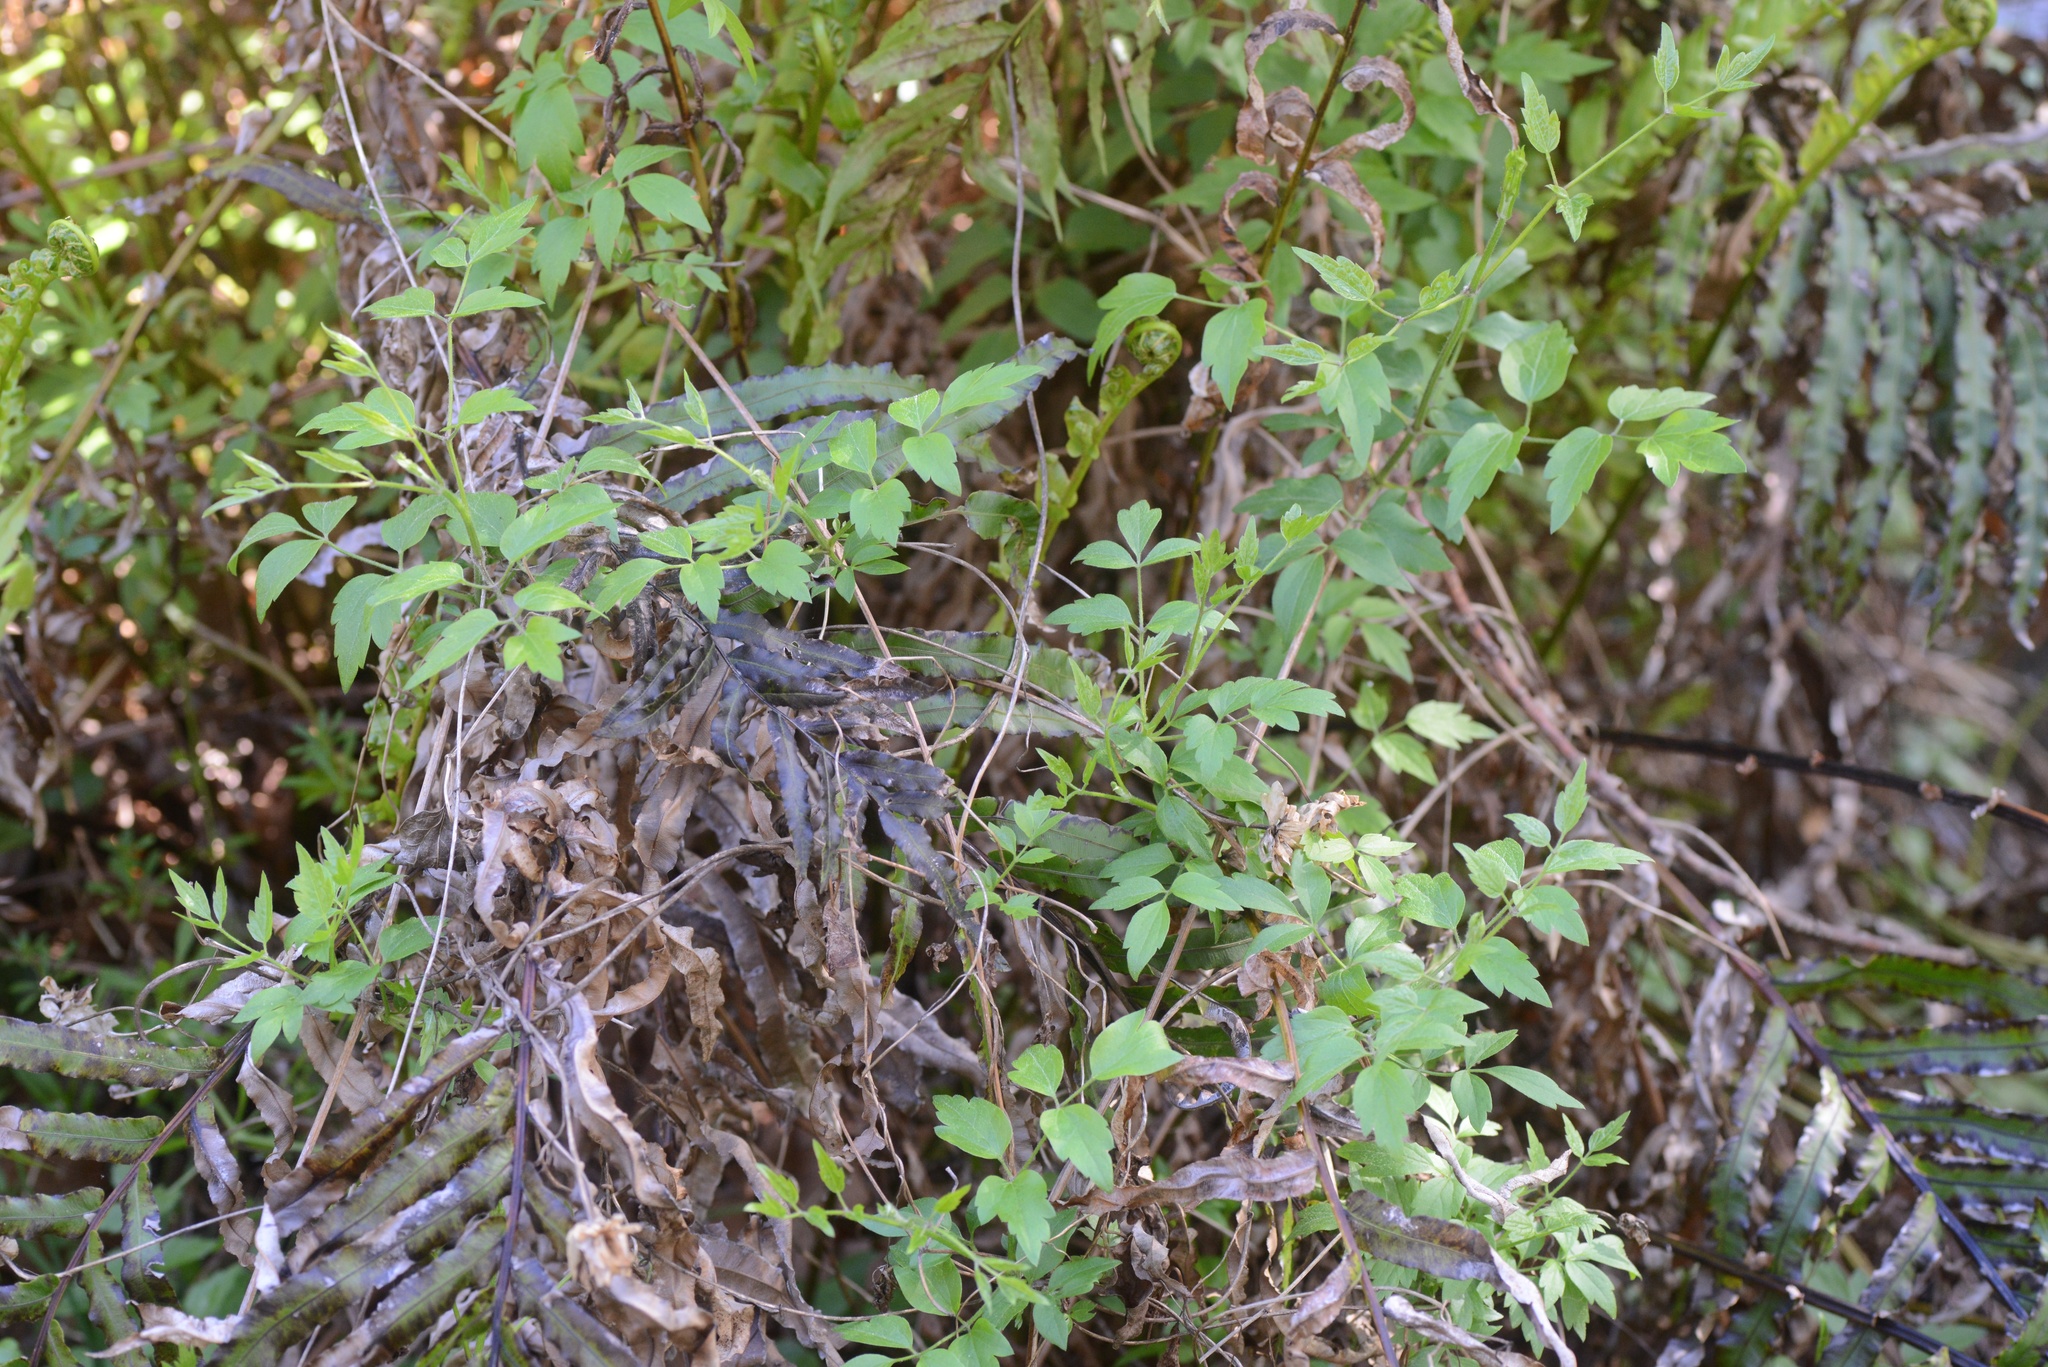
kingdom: Plantae
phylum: Tracheophyta
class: Magnoliopsida
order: Ranunculales
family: Ranunculaceae
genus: Clematis
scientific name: Clematis vitalba
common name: Evergreen clematis
